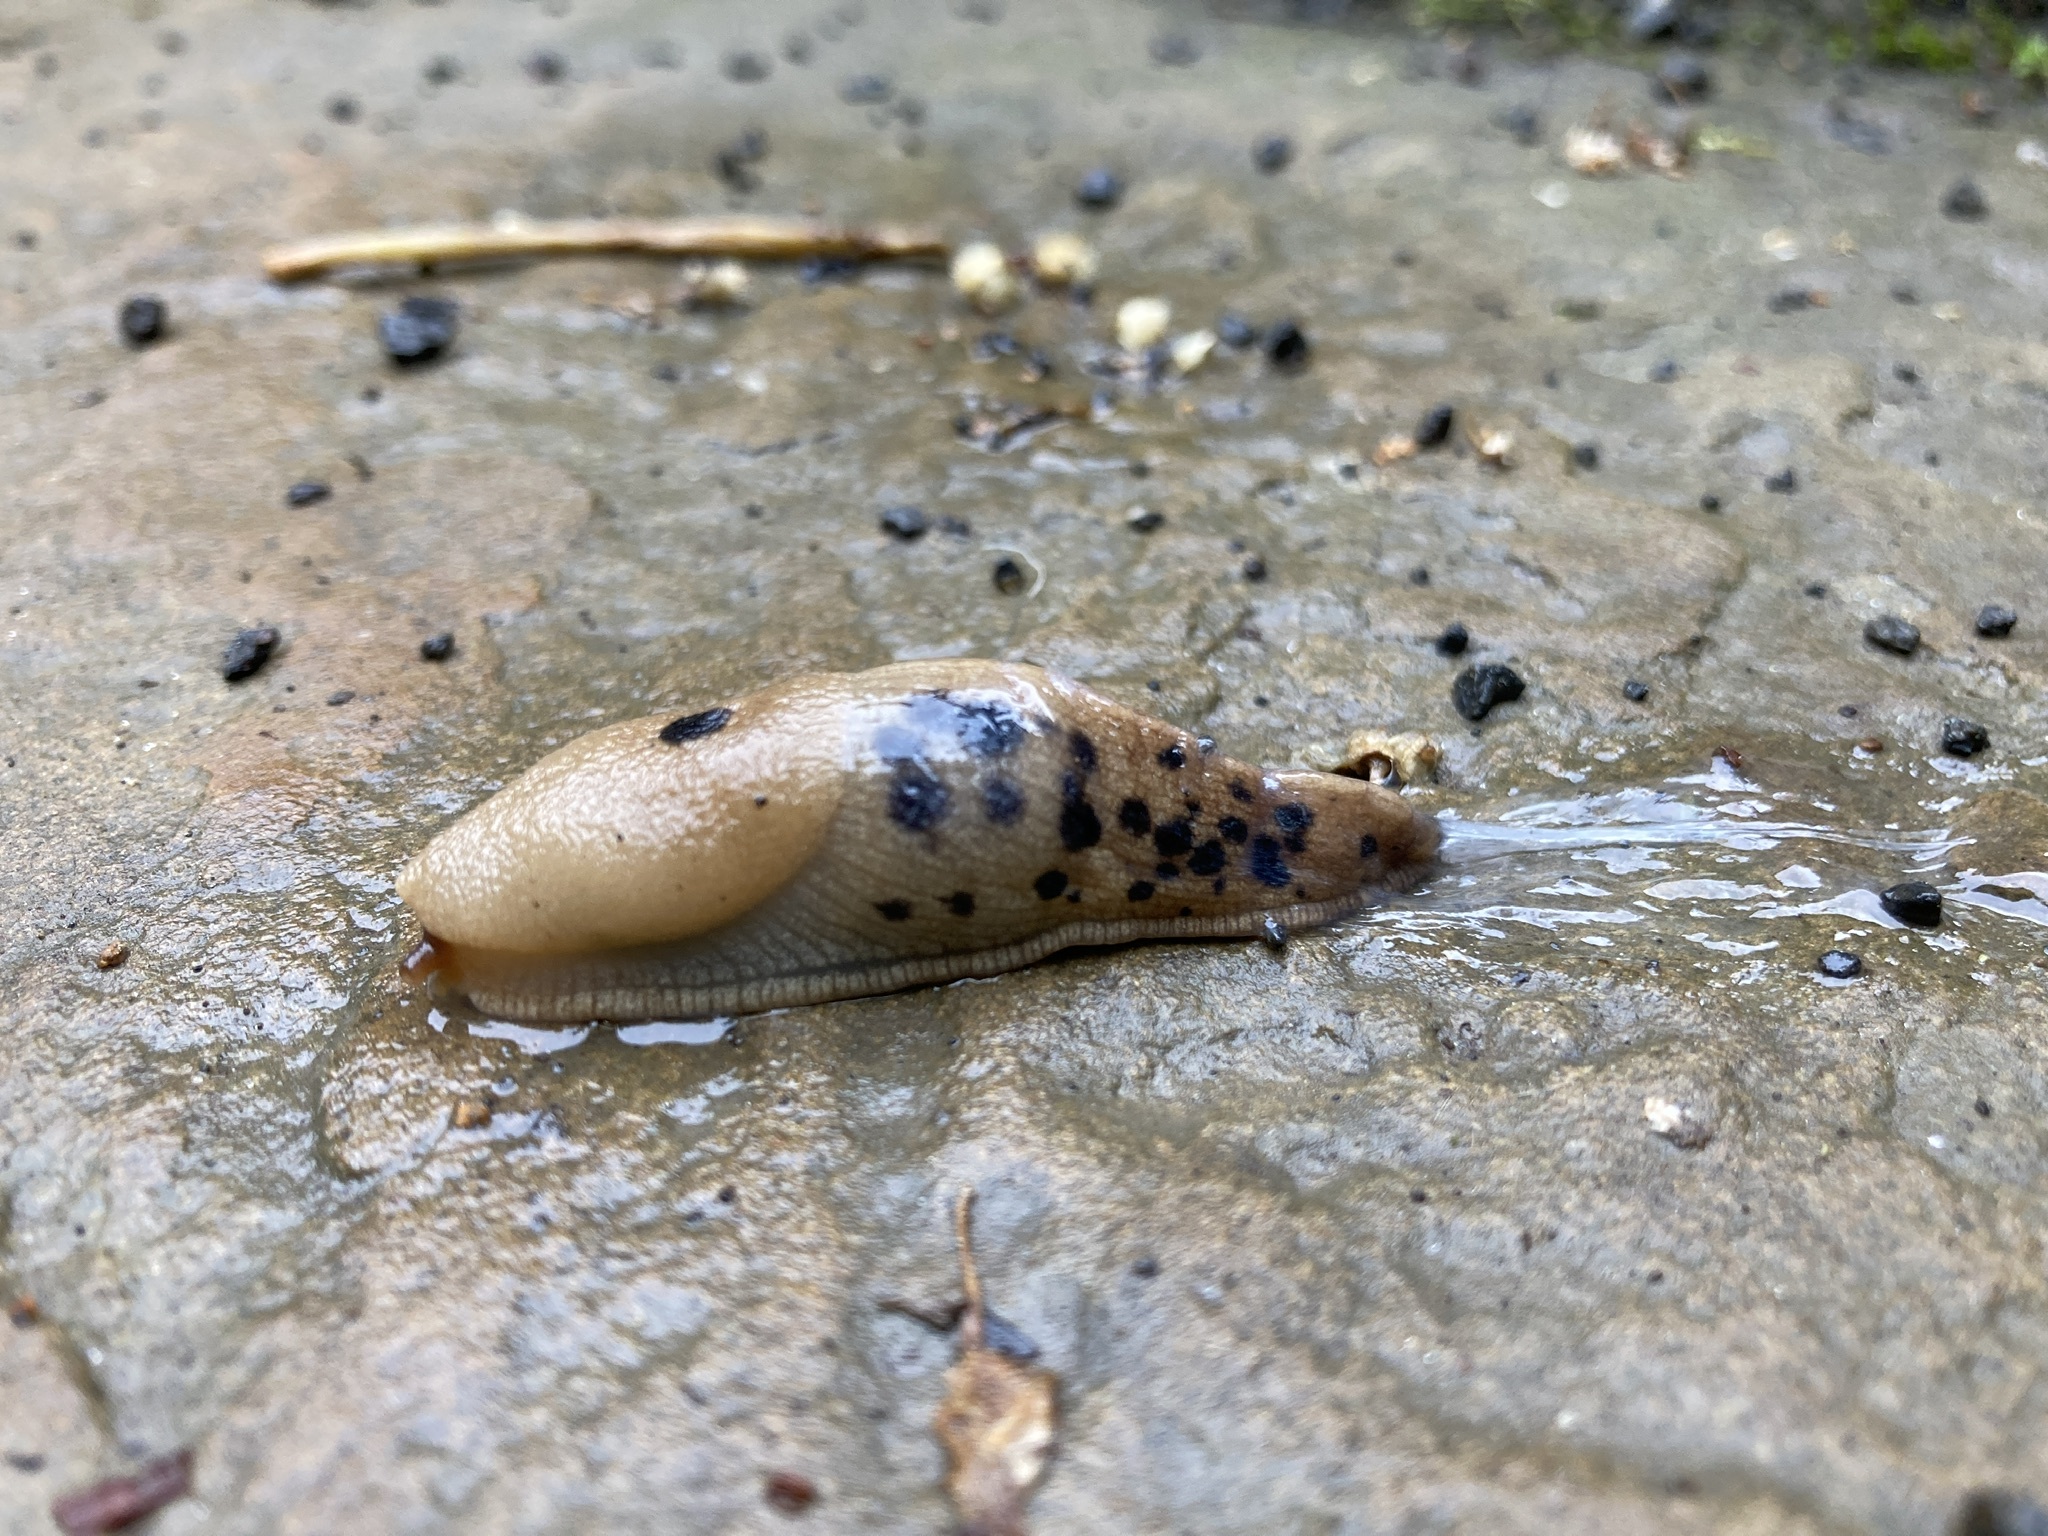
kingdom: Animalia
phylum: Mollusca
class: Gastropoda
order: Stylommatophora
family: Ariolimacidae
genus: Ariolimax
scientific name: Ariolimax columbianus
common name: Pacific banana slug
